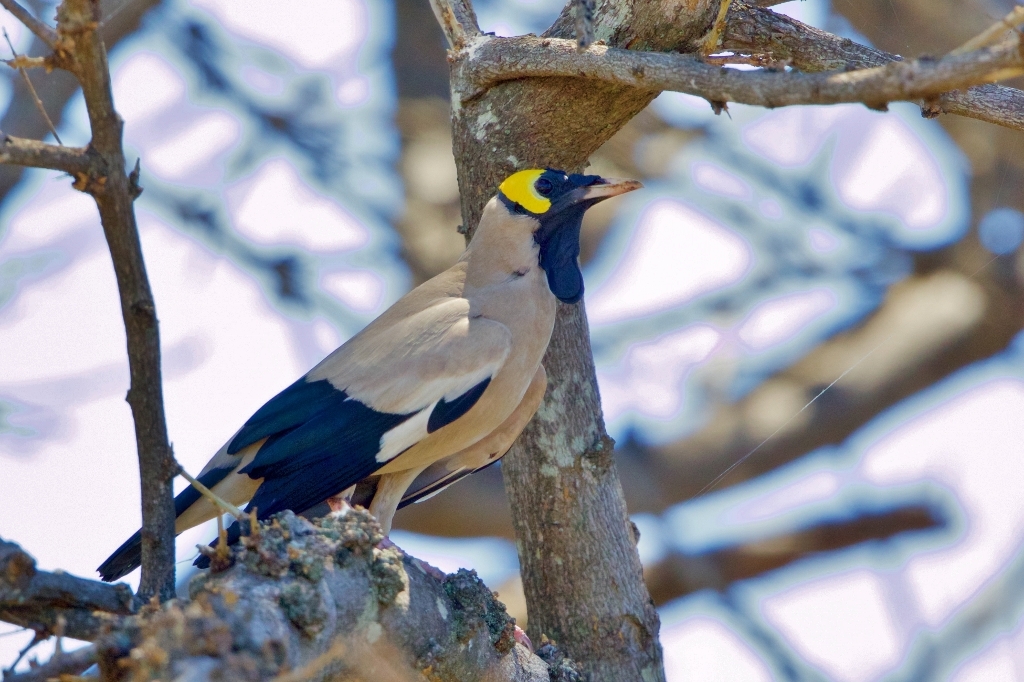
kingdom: Animalia
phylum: Chordata
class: Aves
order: Passeriformes
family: Sturnidae
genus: Creatophora
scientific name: Creatophora cinerea
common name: Wattled starling
